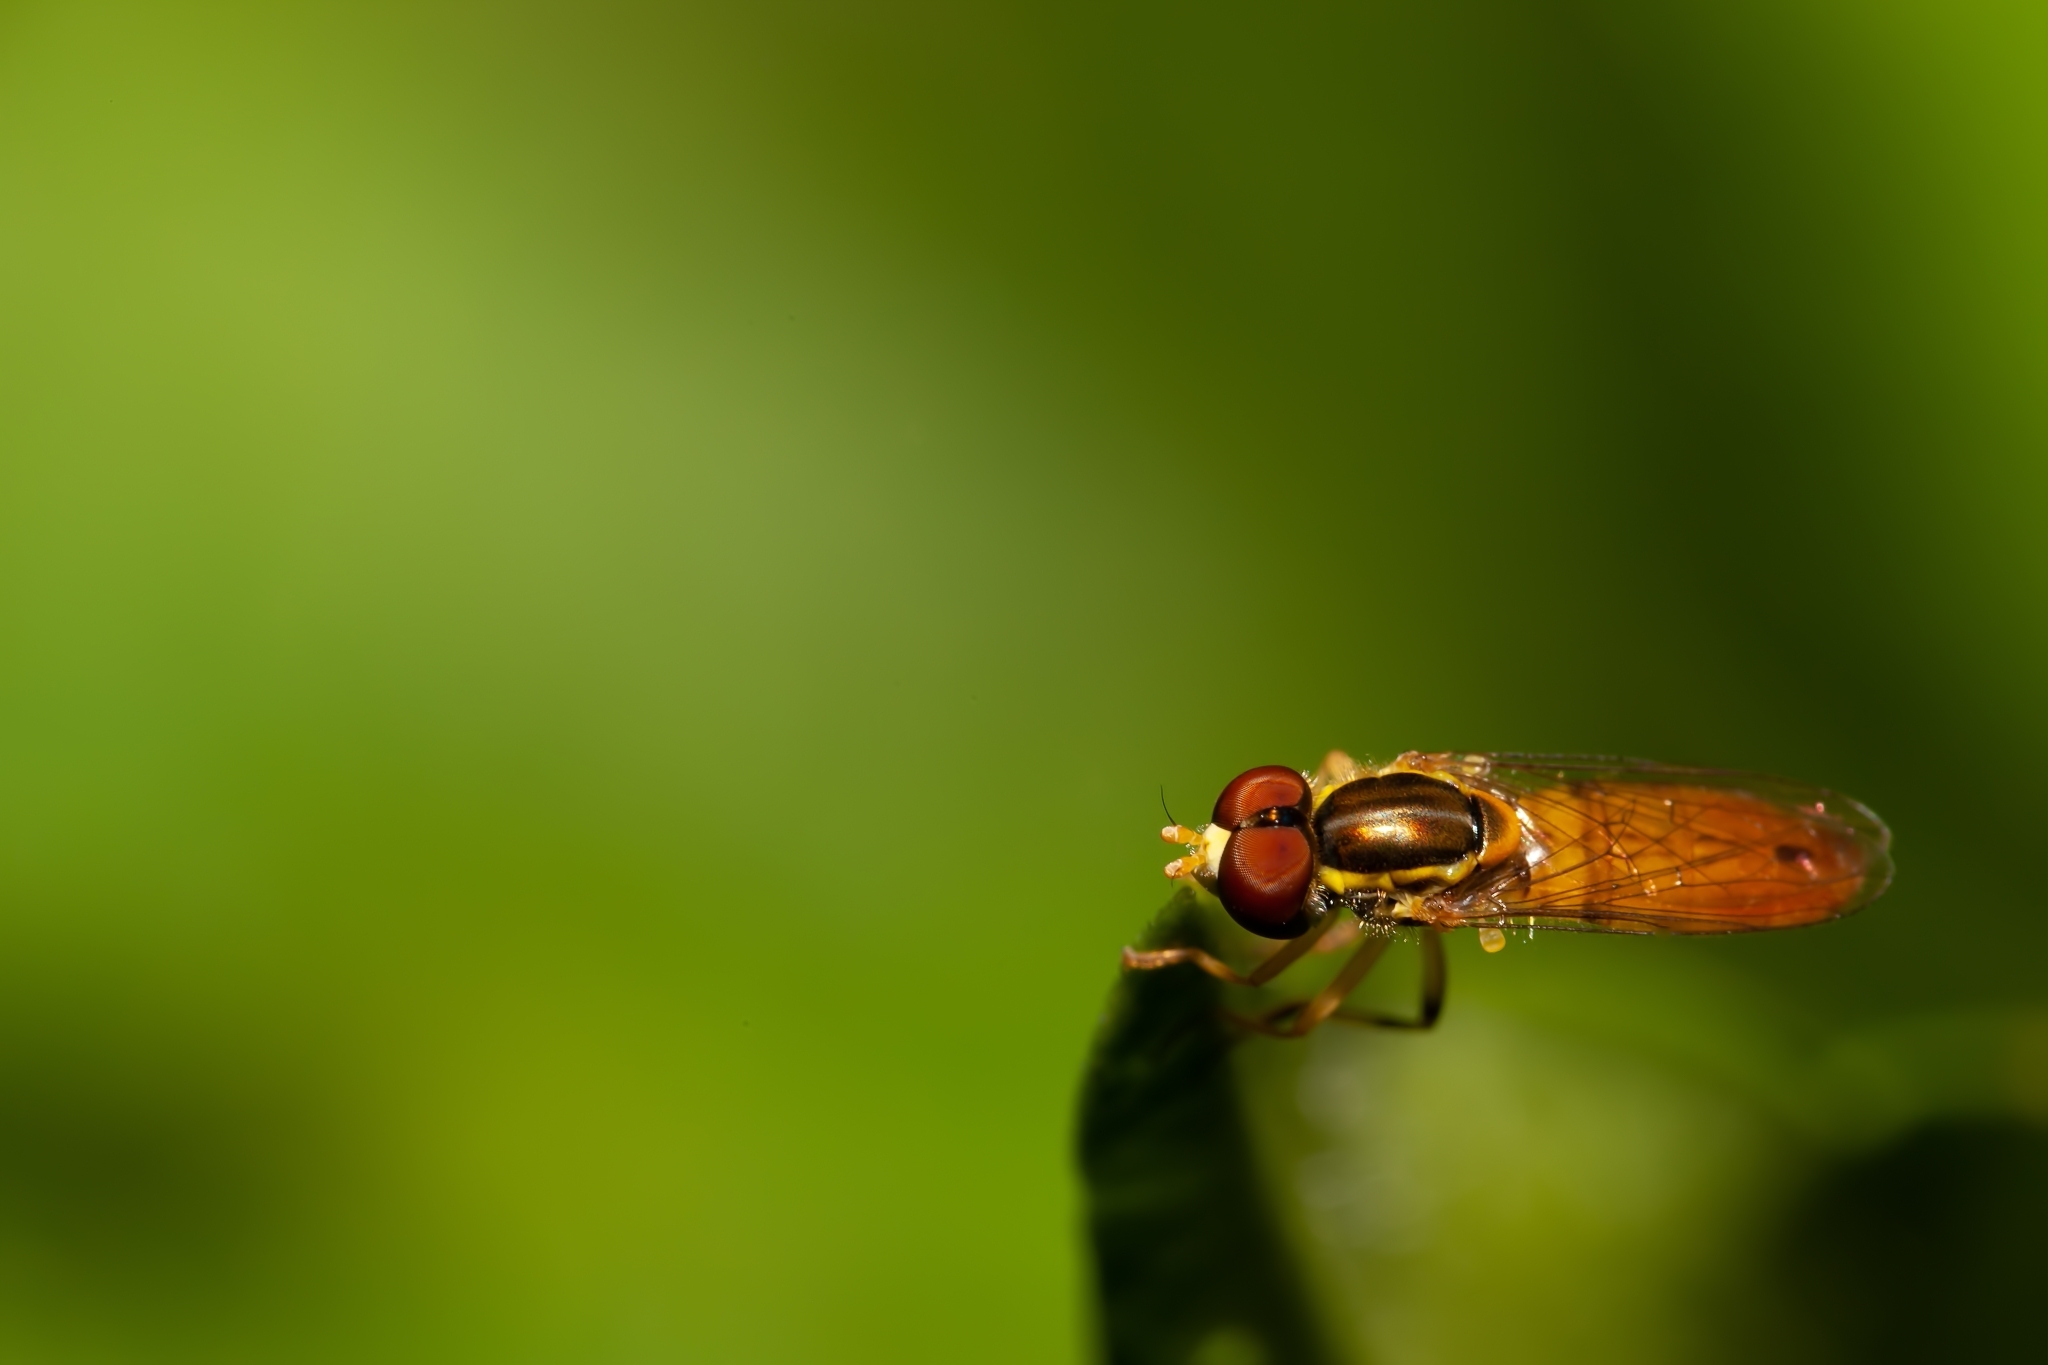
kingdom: Animalia
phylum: Arthropoda
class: Insecta
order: Diptera
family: Syrphidae
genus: Toxomerus
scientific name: Toxomerus floralis
